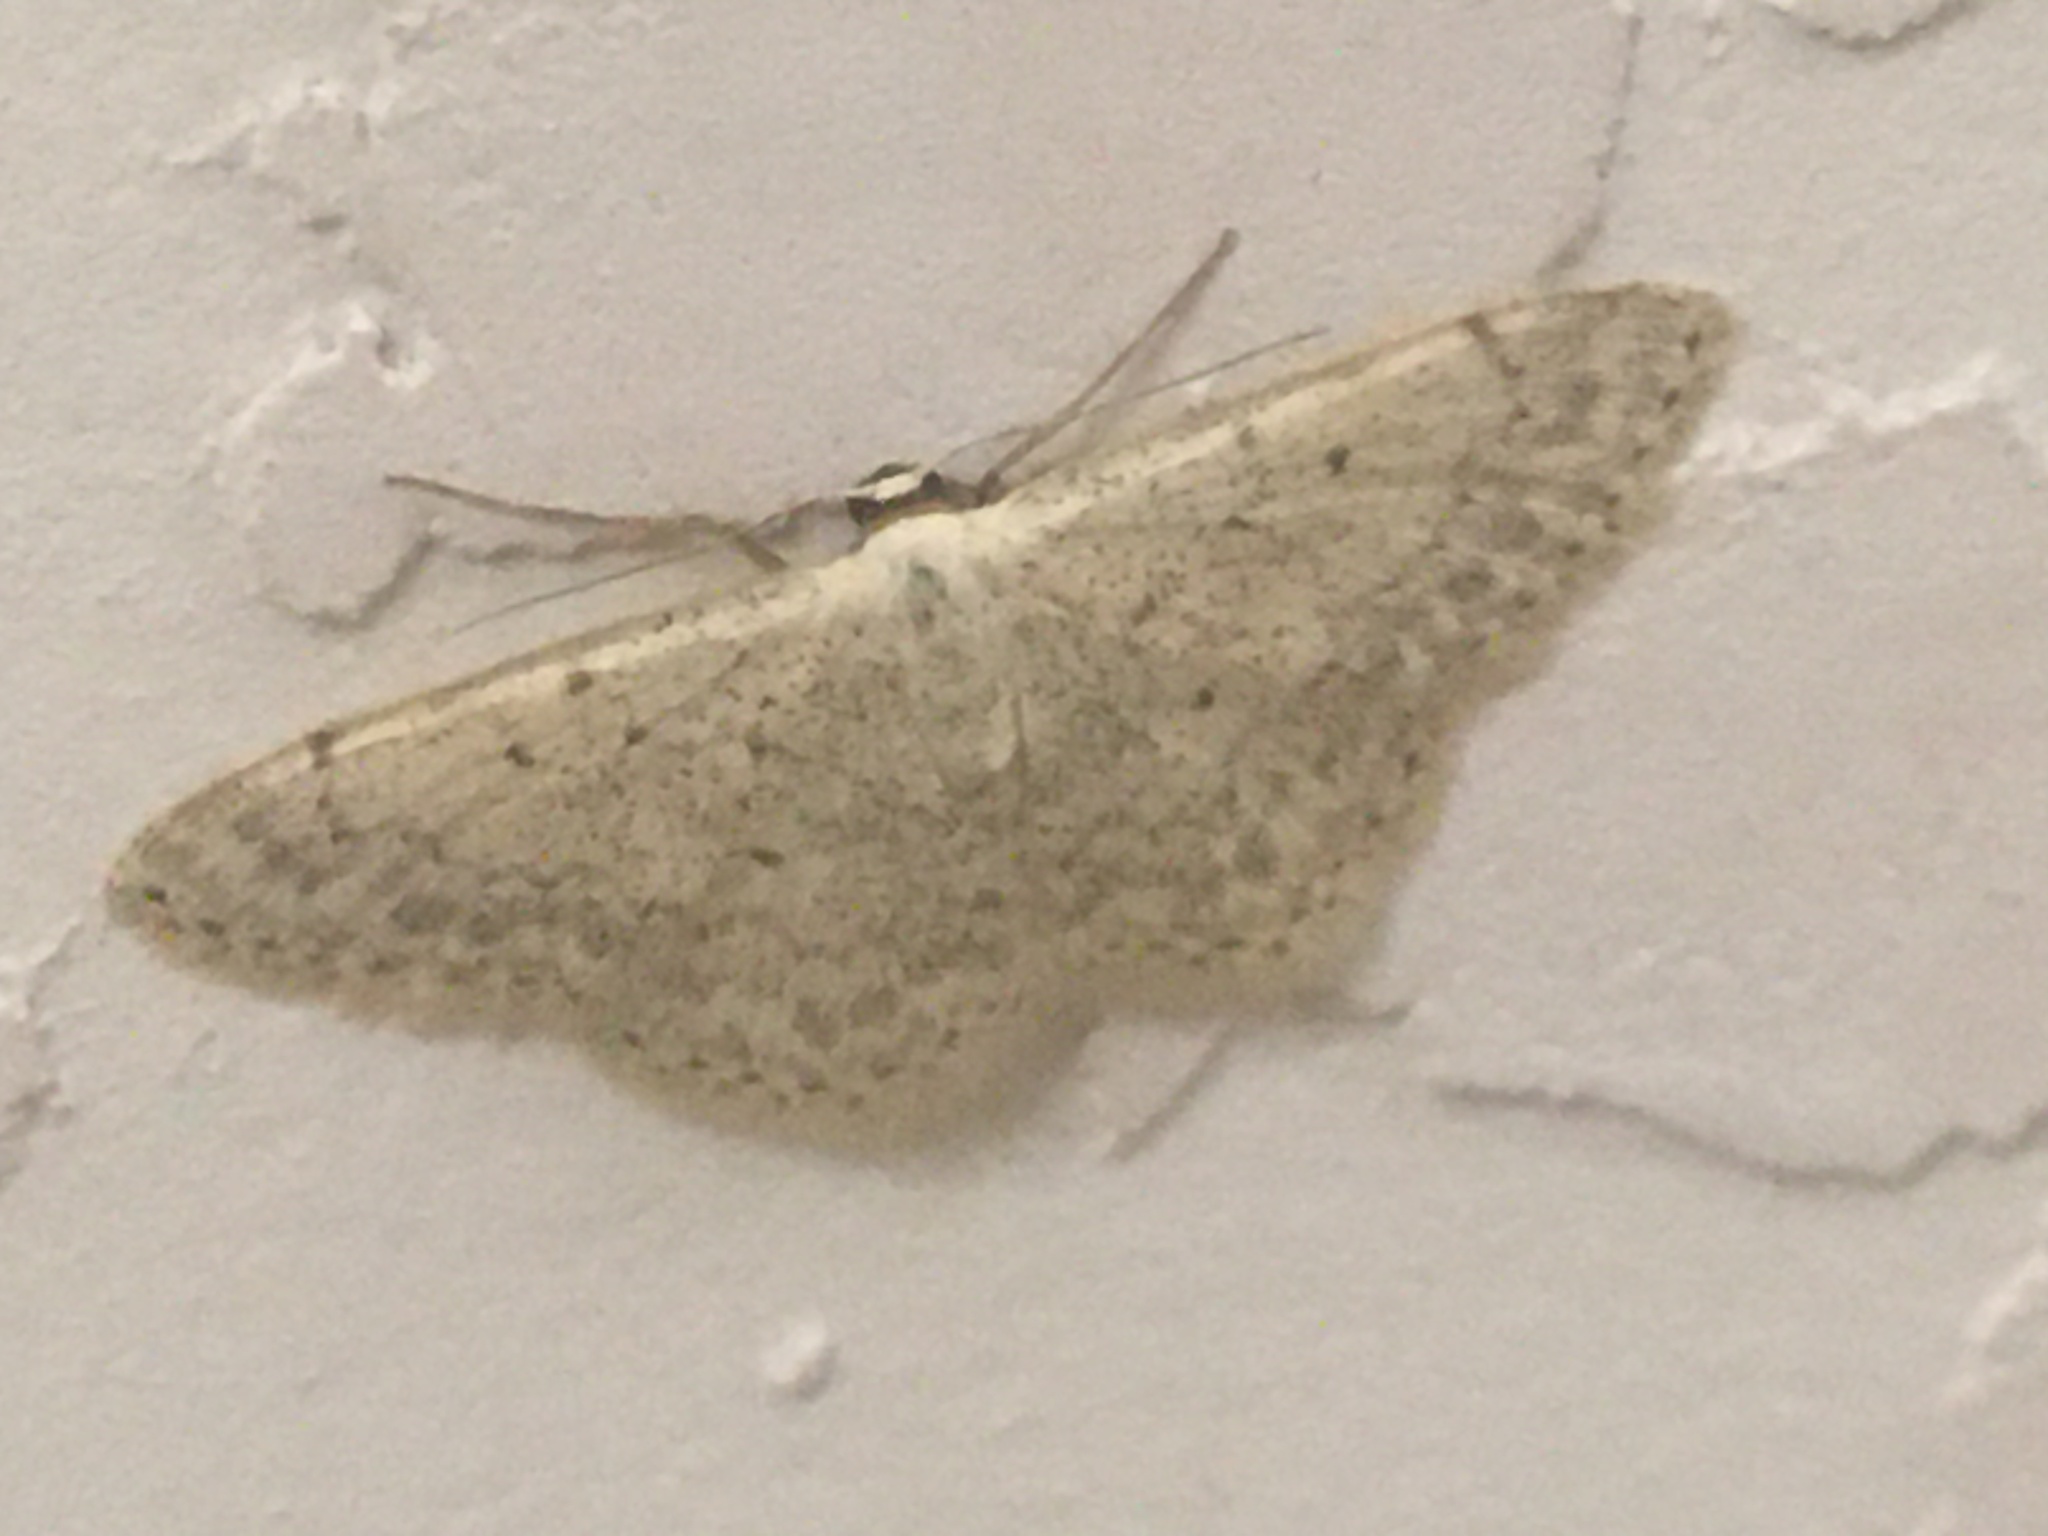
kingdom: Animalia
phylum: Arthropoda
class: Insecta
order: Lepidoptera
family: Geometridae
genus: Scopula
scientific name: Scopula marginepunctata
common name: Mullein wave
